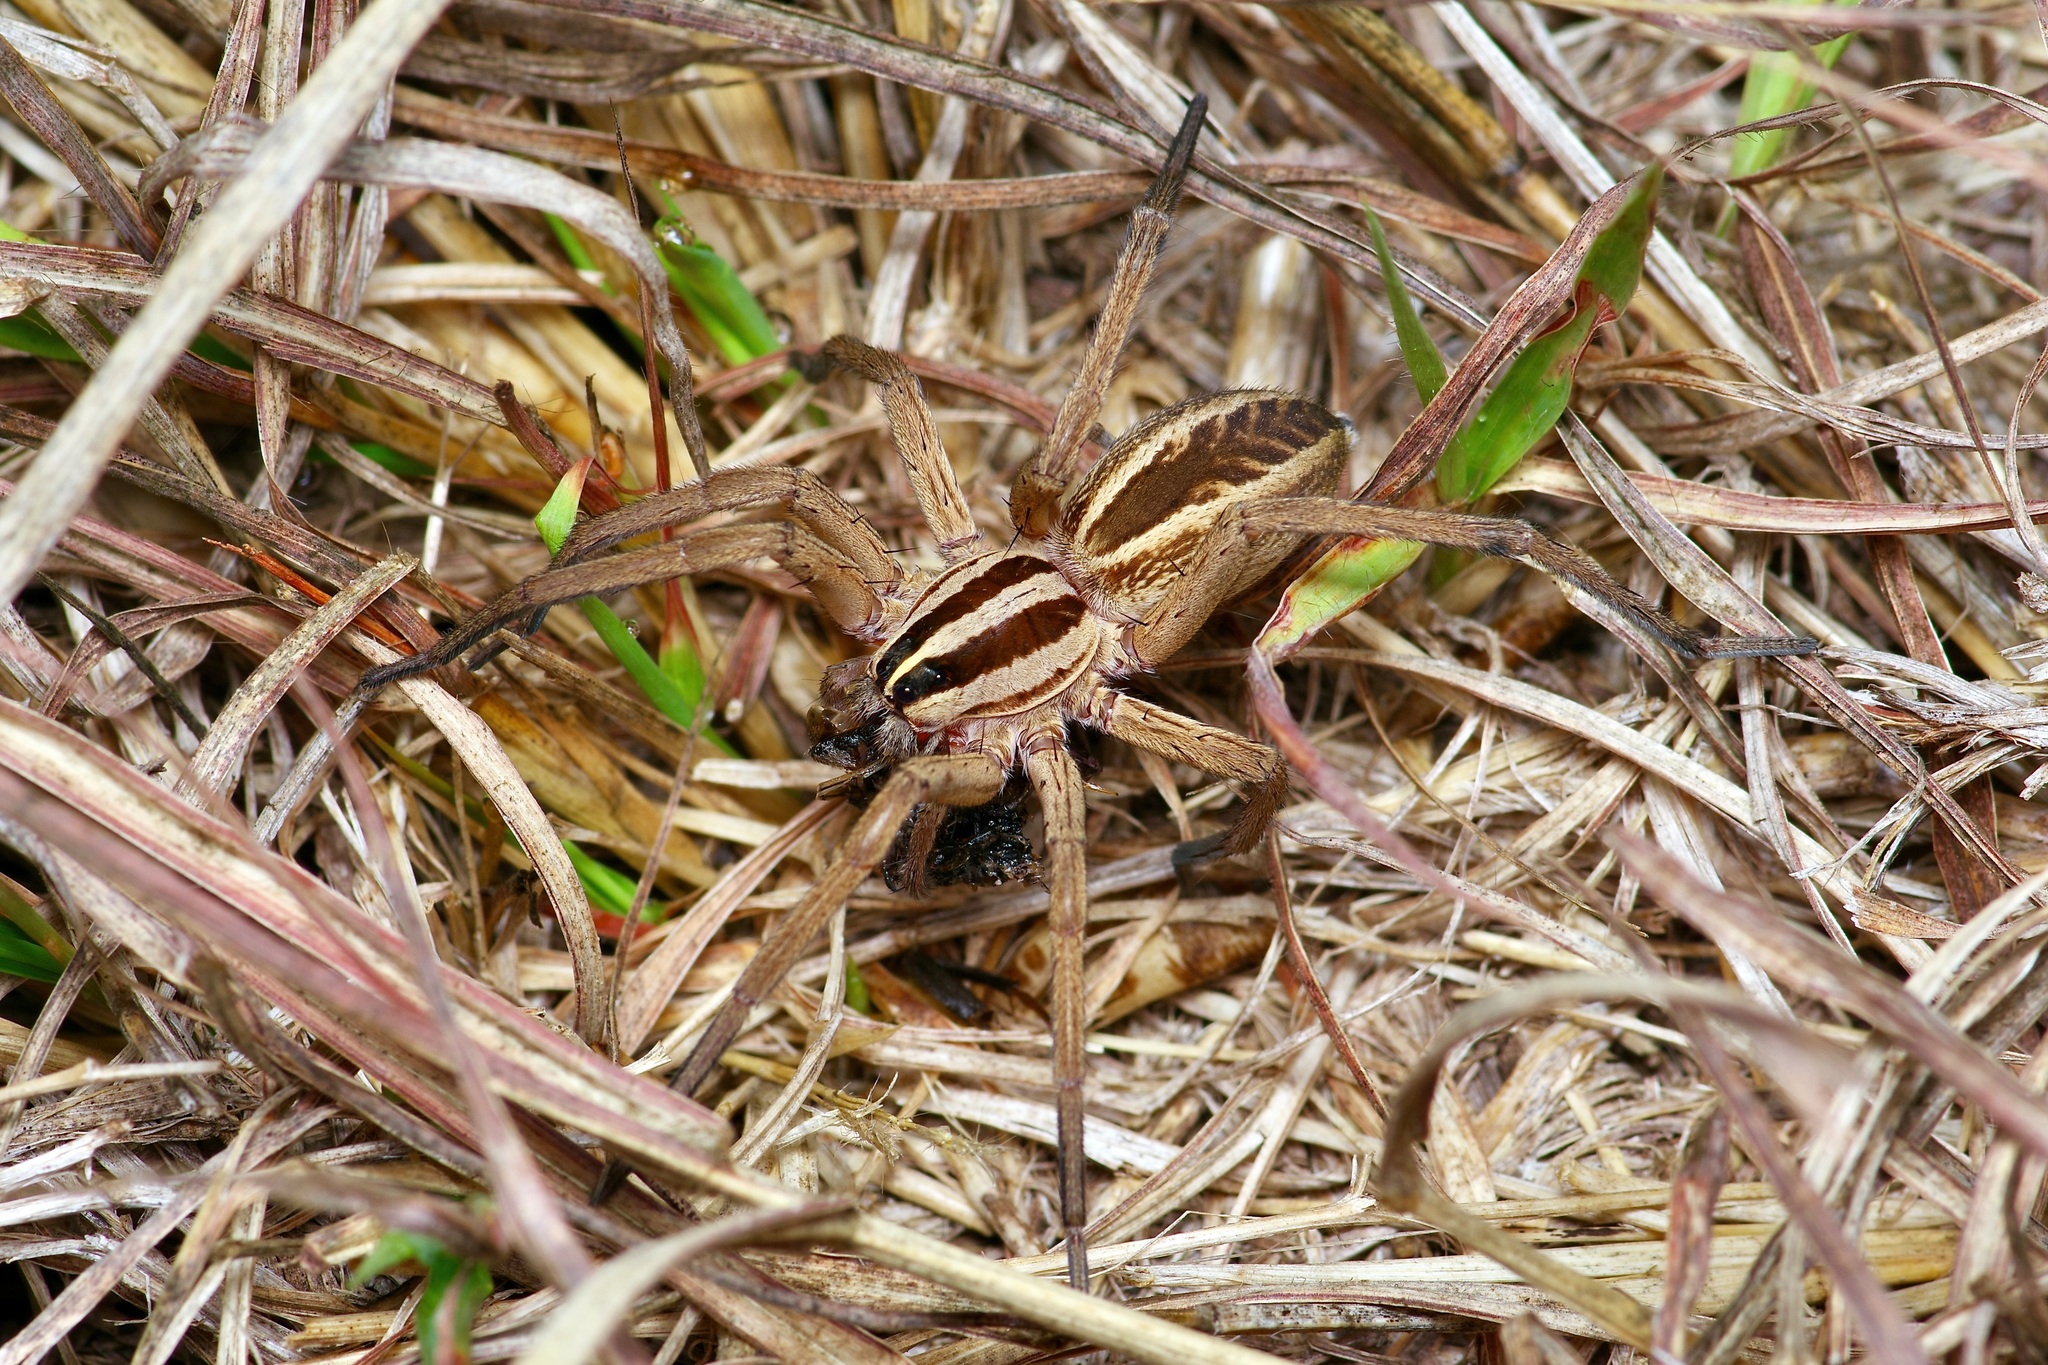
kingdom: Animalia
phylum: Arthropoda
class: Arachnida
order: Araneae
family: Lycosidae
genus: Rabidosa
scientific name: Rabidosa rabida
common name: Rabid wolf spider
